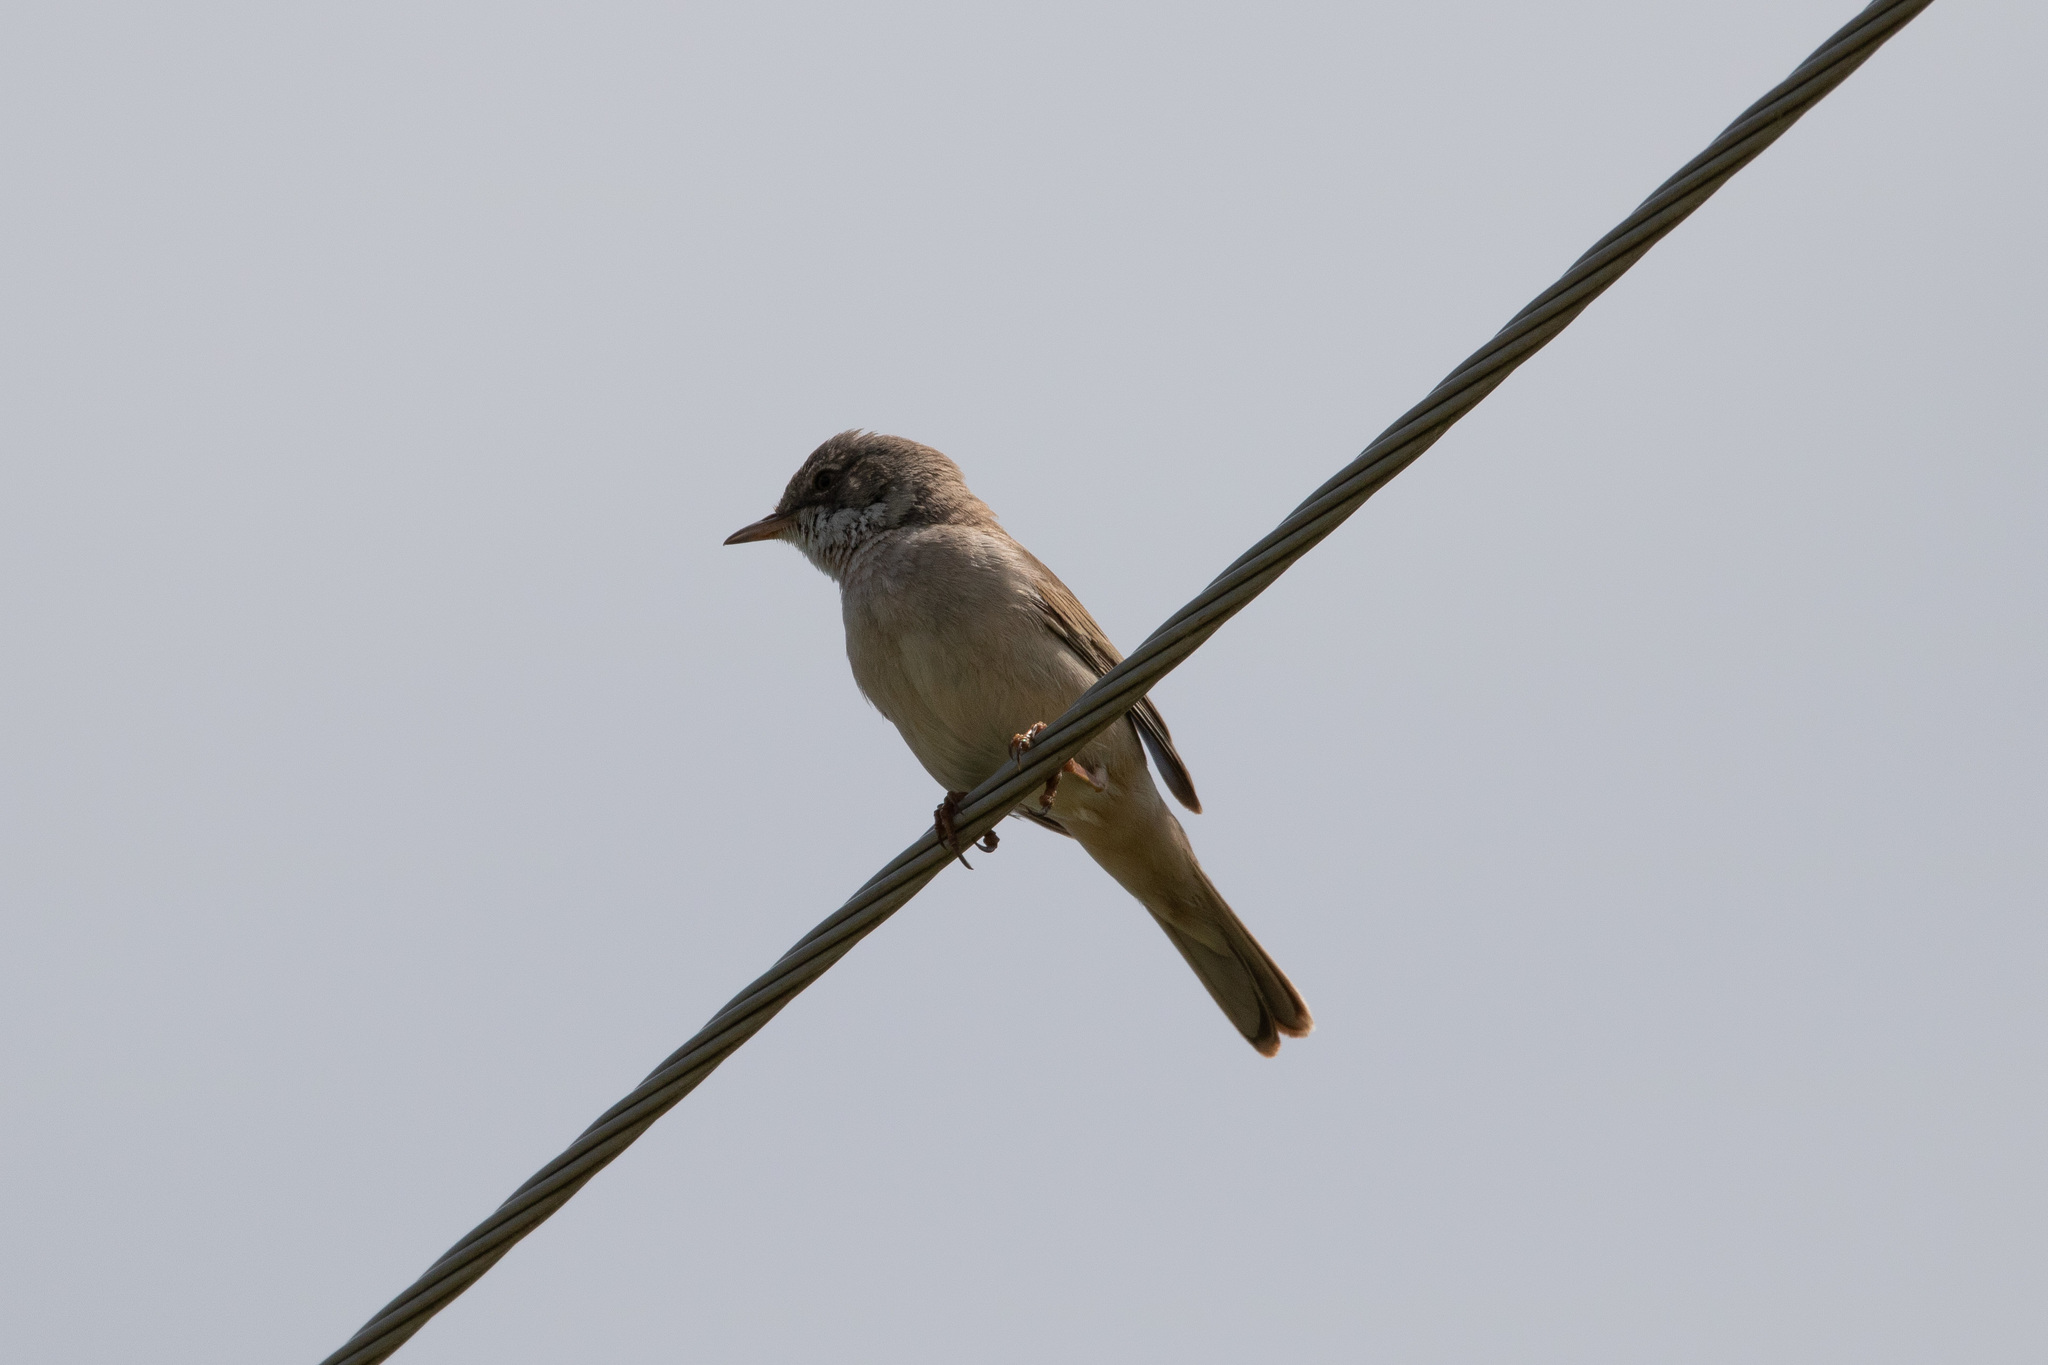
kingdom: Animalia
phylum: Chordata
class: Aves
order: Passeriformes
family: Sylviidae
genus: Sylvia
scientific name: Sylvia communis
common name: Common whitethroat
